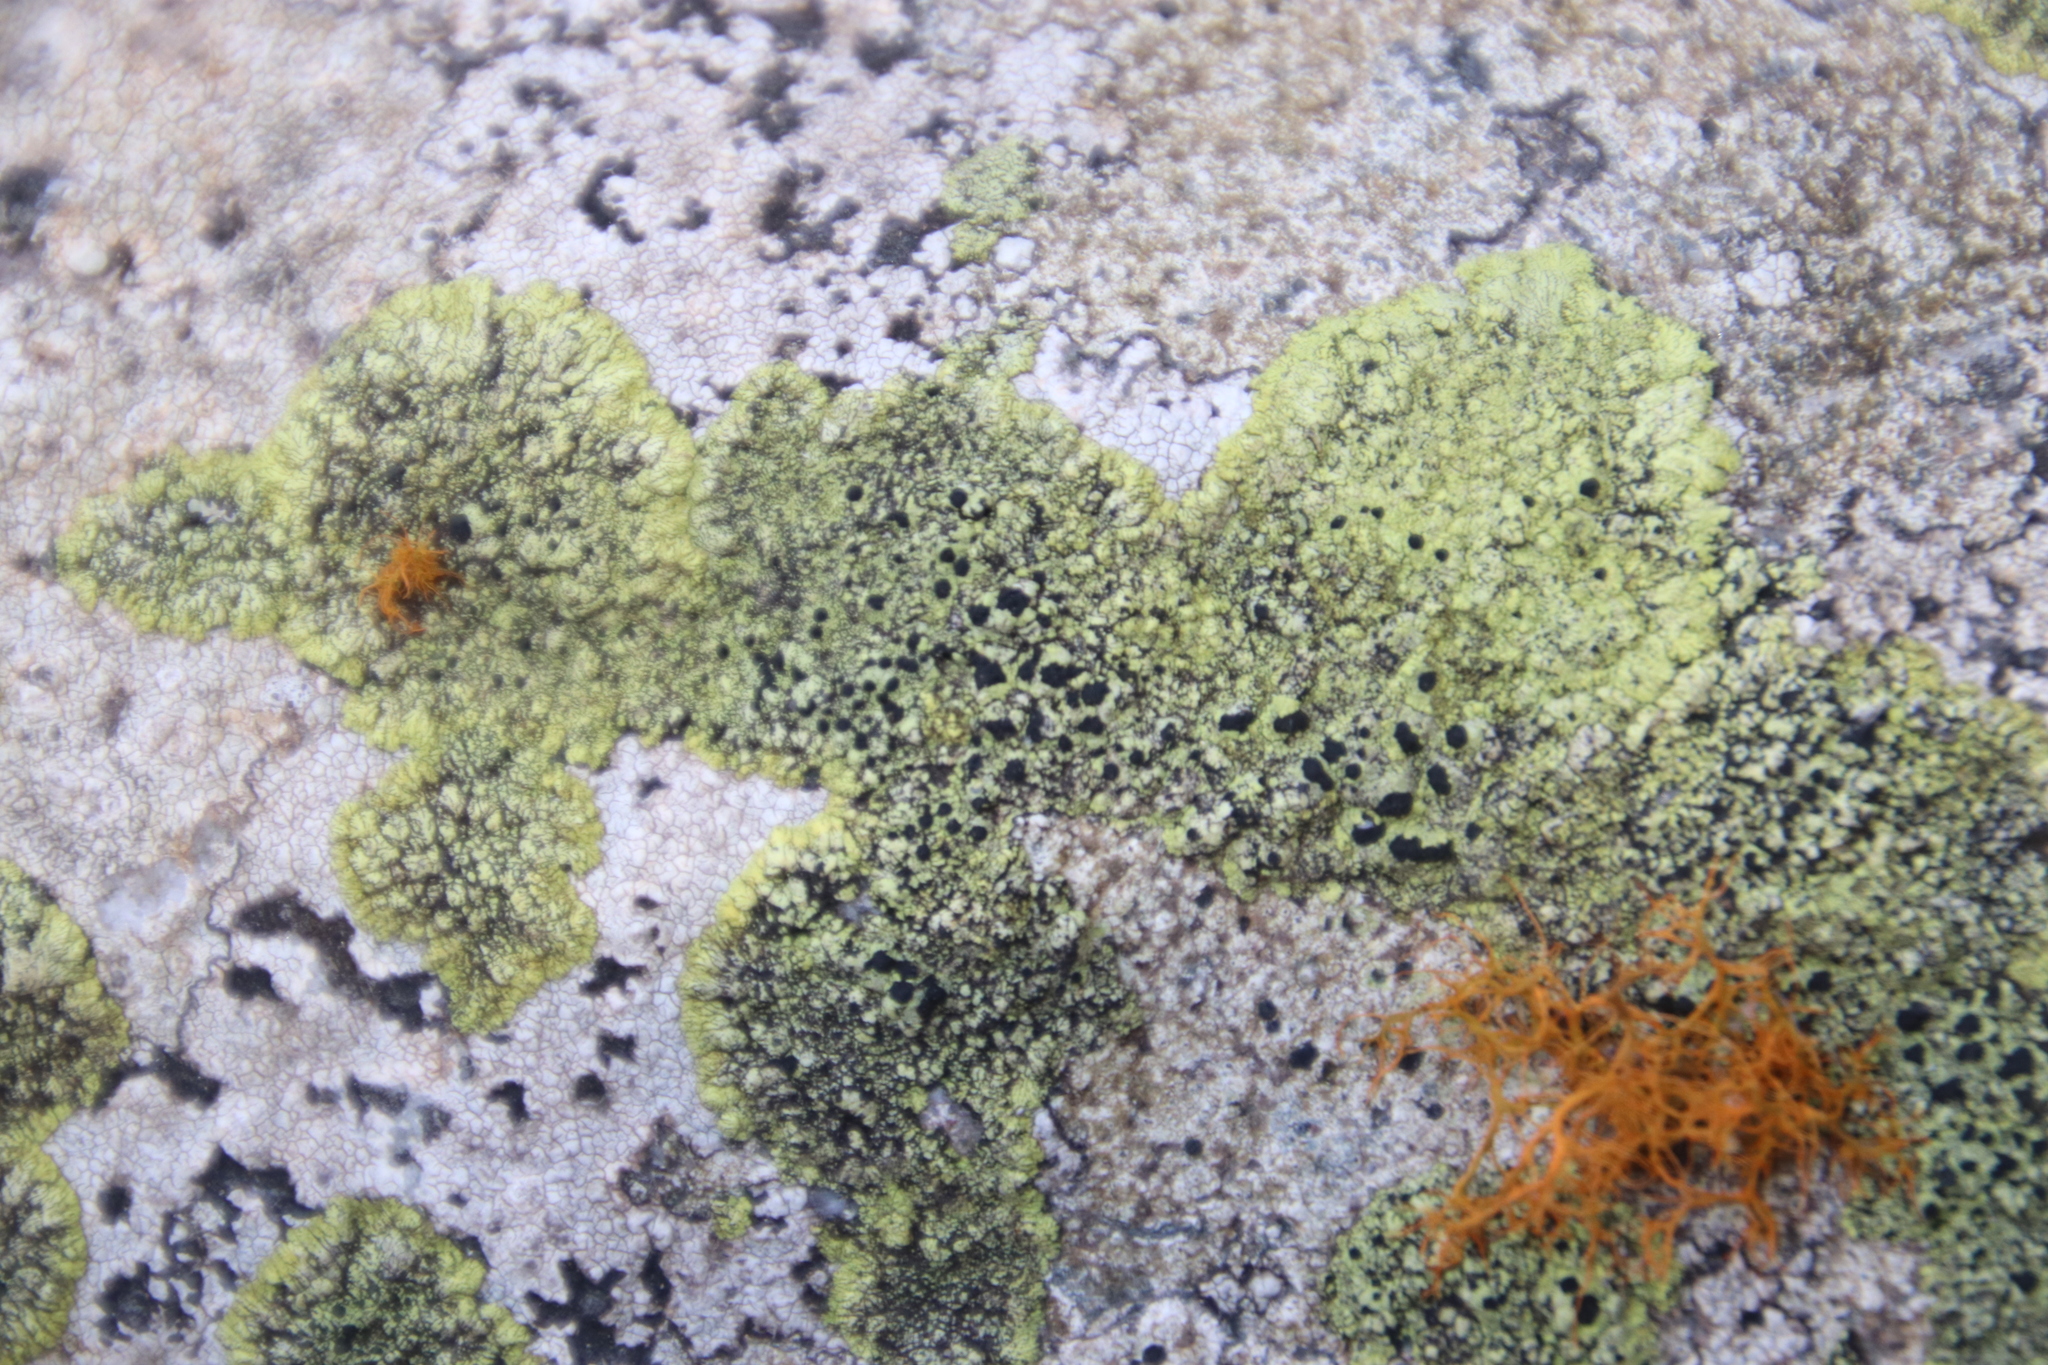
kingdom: Fungi
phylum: Ascomycota
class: Lecanoromycetes
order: Caliciales
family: Caliciaceae
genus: Diploicia
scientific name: Diploicia africana
